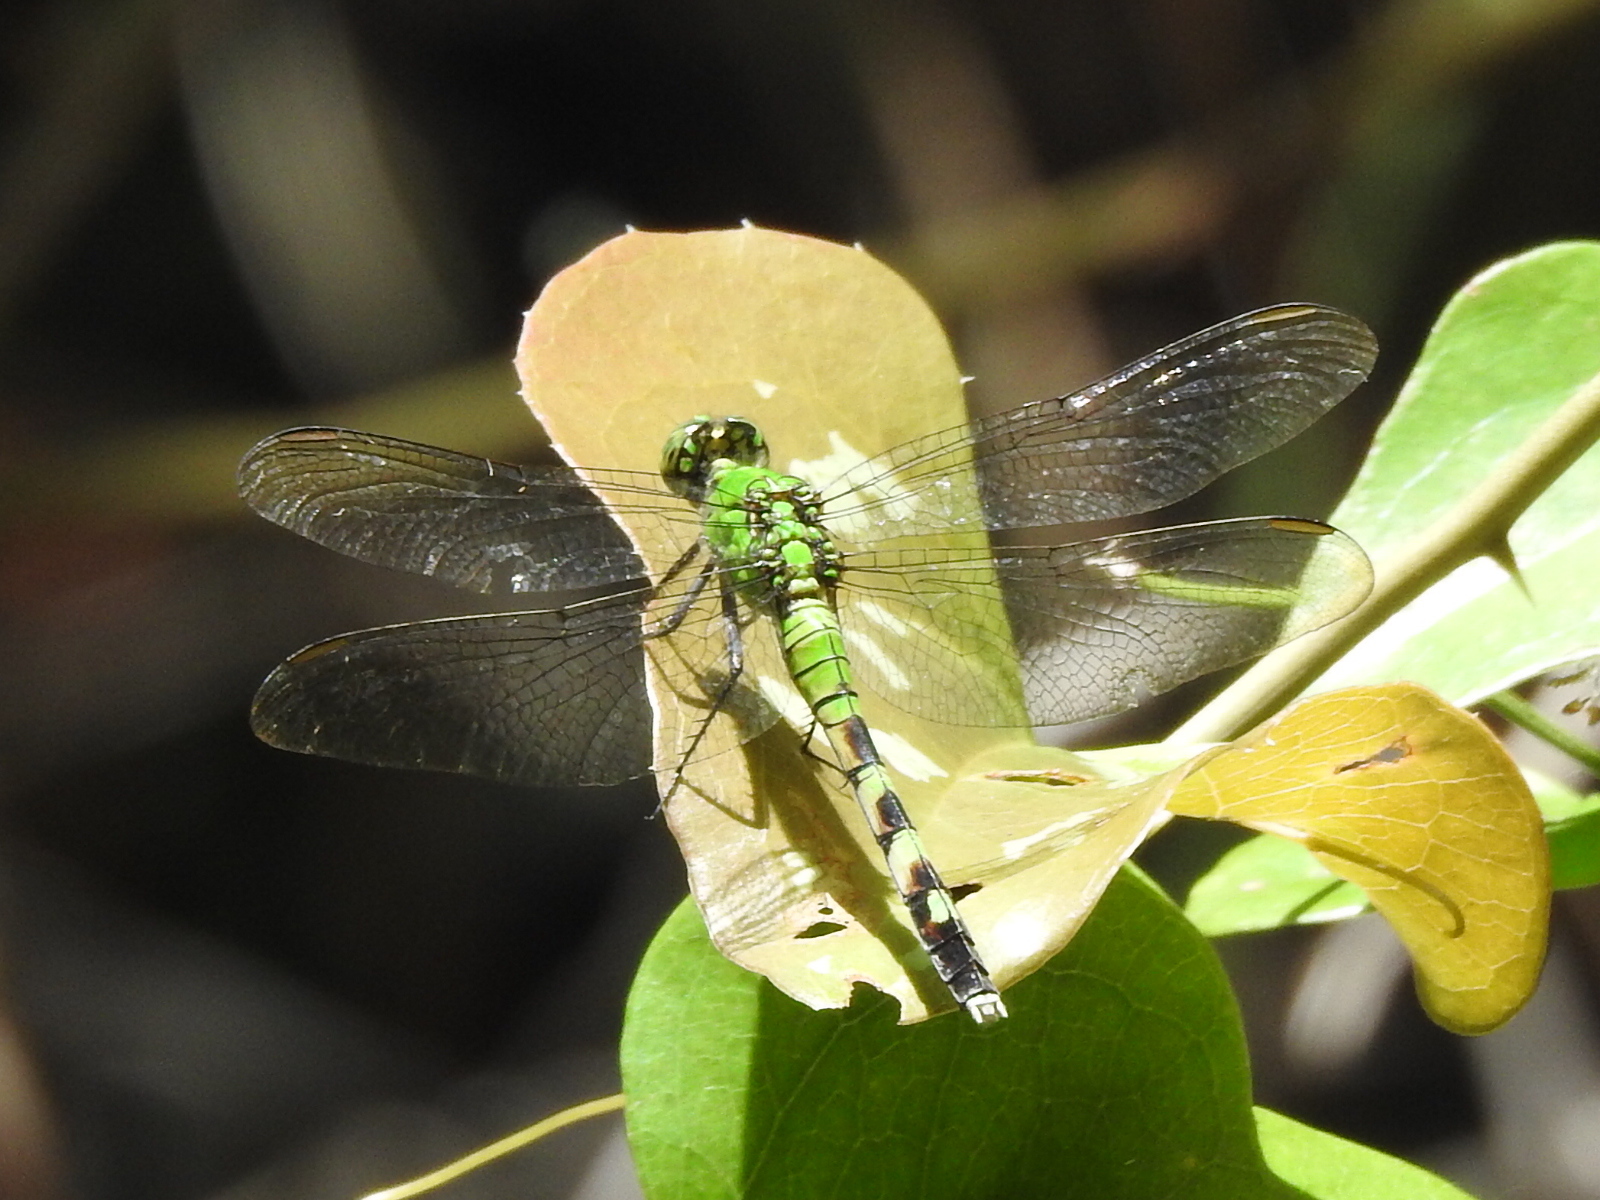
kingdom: Animalia
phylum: Arthropoda
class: Insecta
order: Odonata
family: Libellulidae
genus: Erythemis
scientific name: Erythemis simplicicollis
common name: Eastern pondhawk
